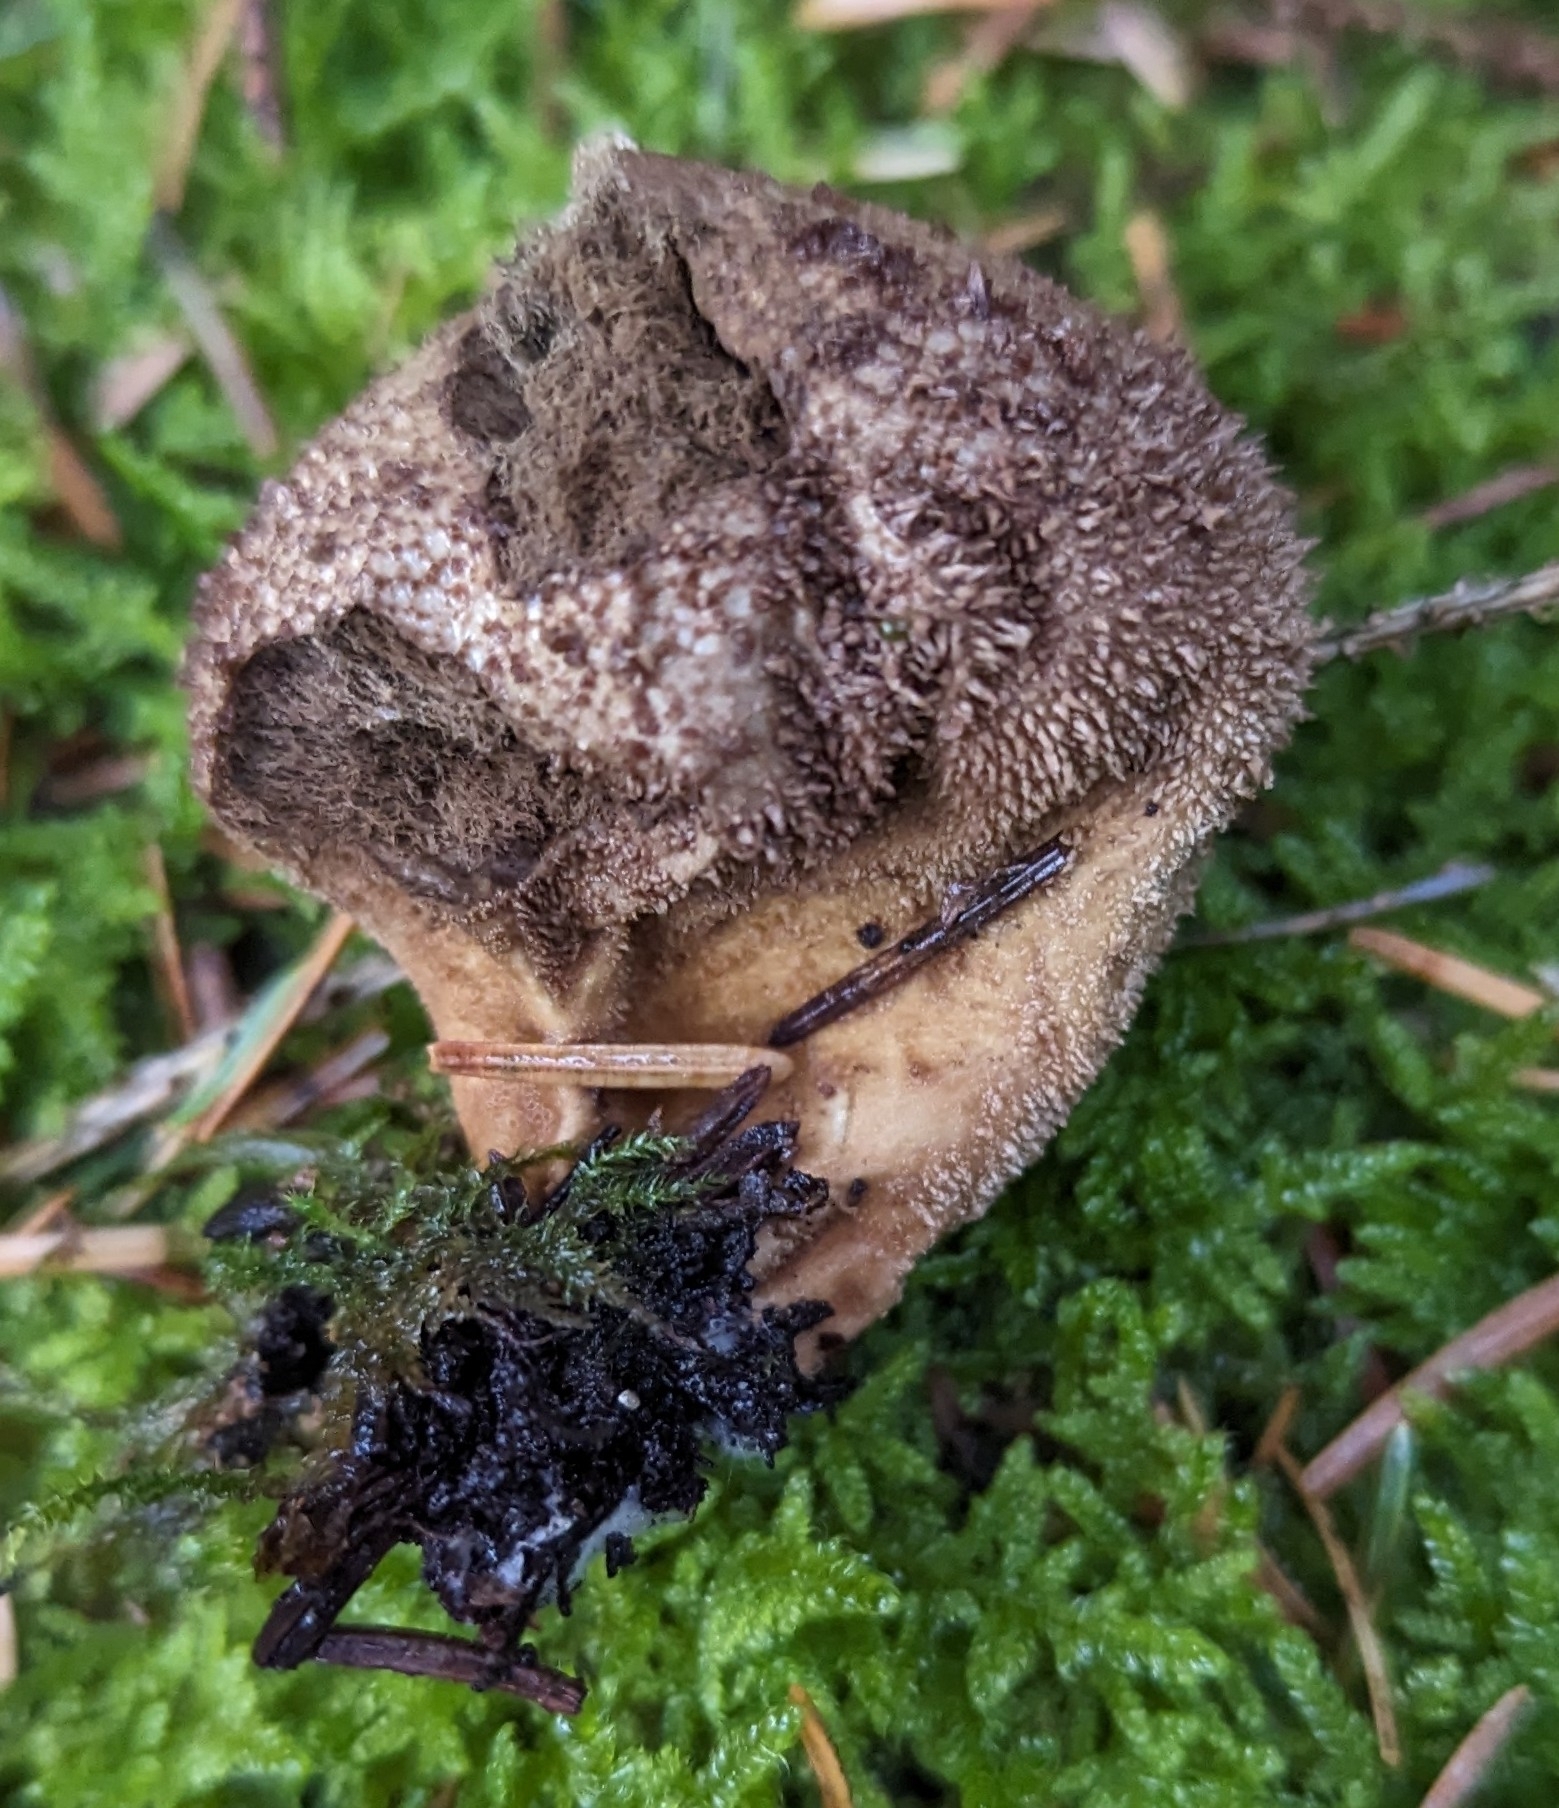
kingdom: Fungi
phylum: Basidiomycota
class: Agaricomycetes
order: Agaricales
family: Lycoperdaceae
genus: Lycoperdon
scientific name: Lycoperdon nigrescens
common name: Blackish puffball
